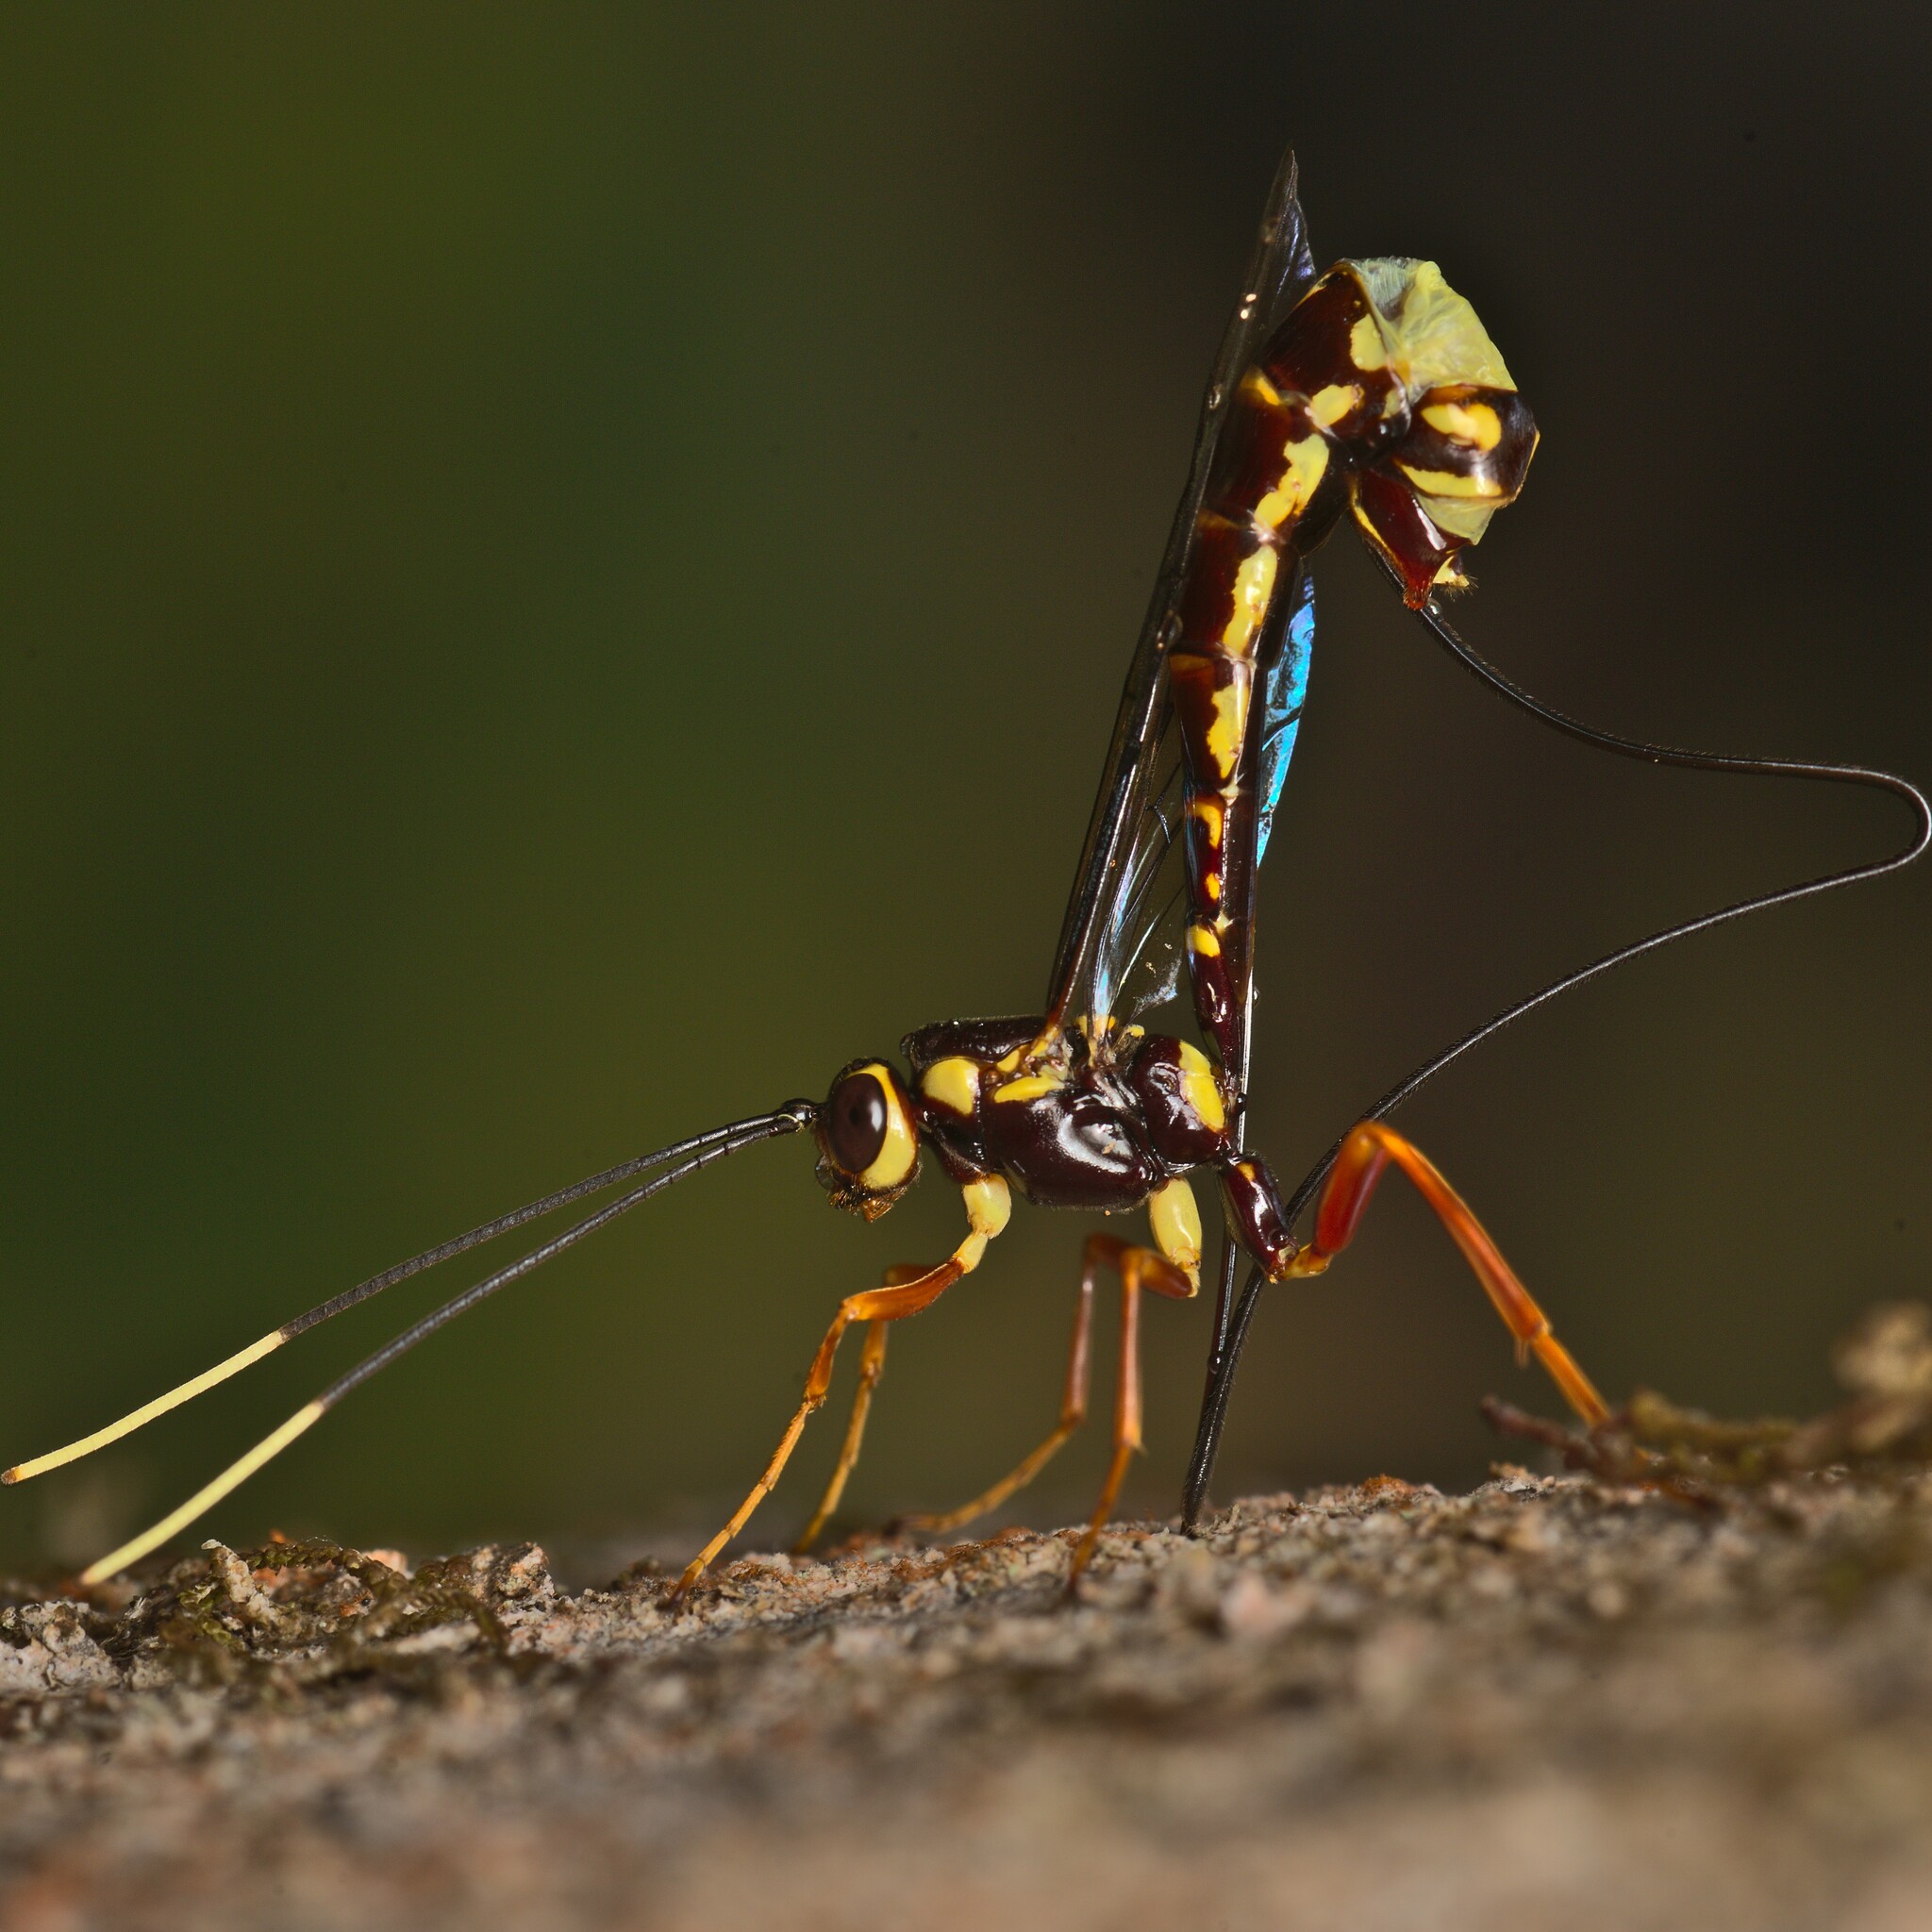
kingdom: Animalia
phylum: Arthropoda
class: Insecta
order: Hymenoptera
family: Ichneumonidae
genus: Certonotus
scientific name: Certonotus fractinervis
